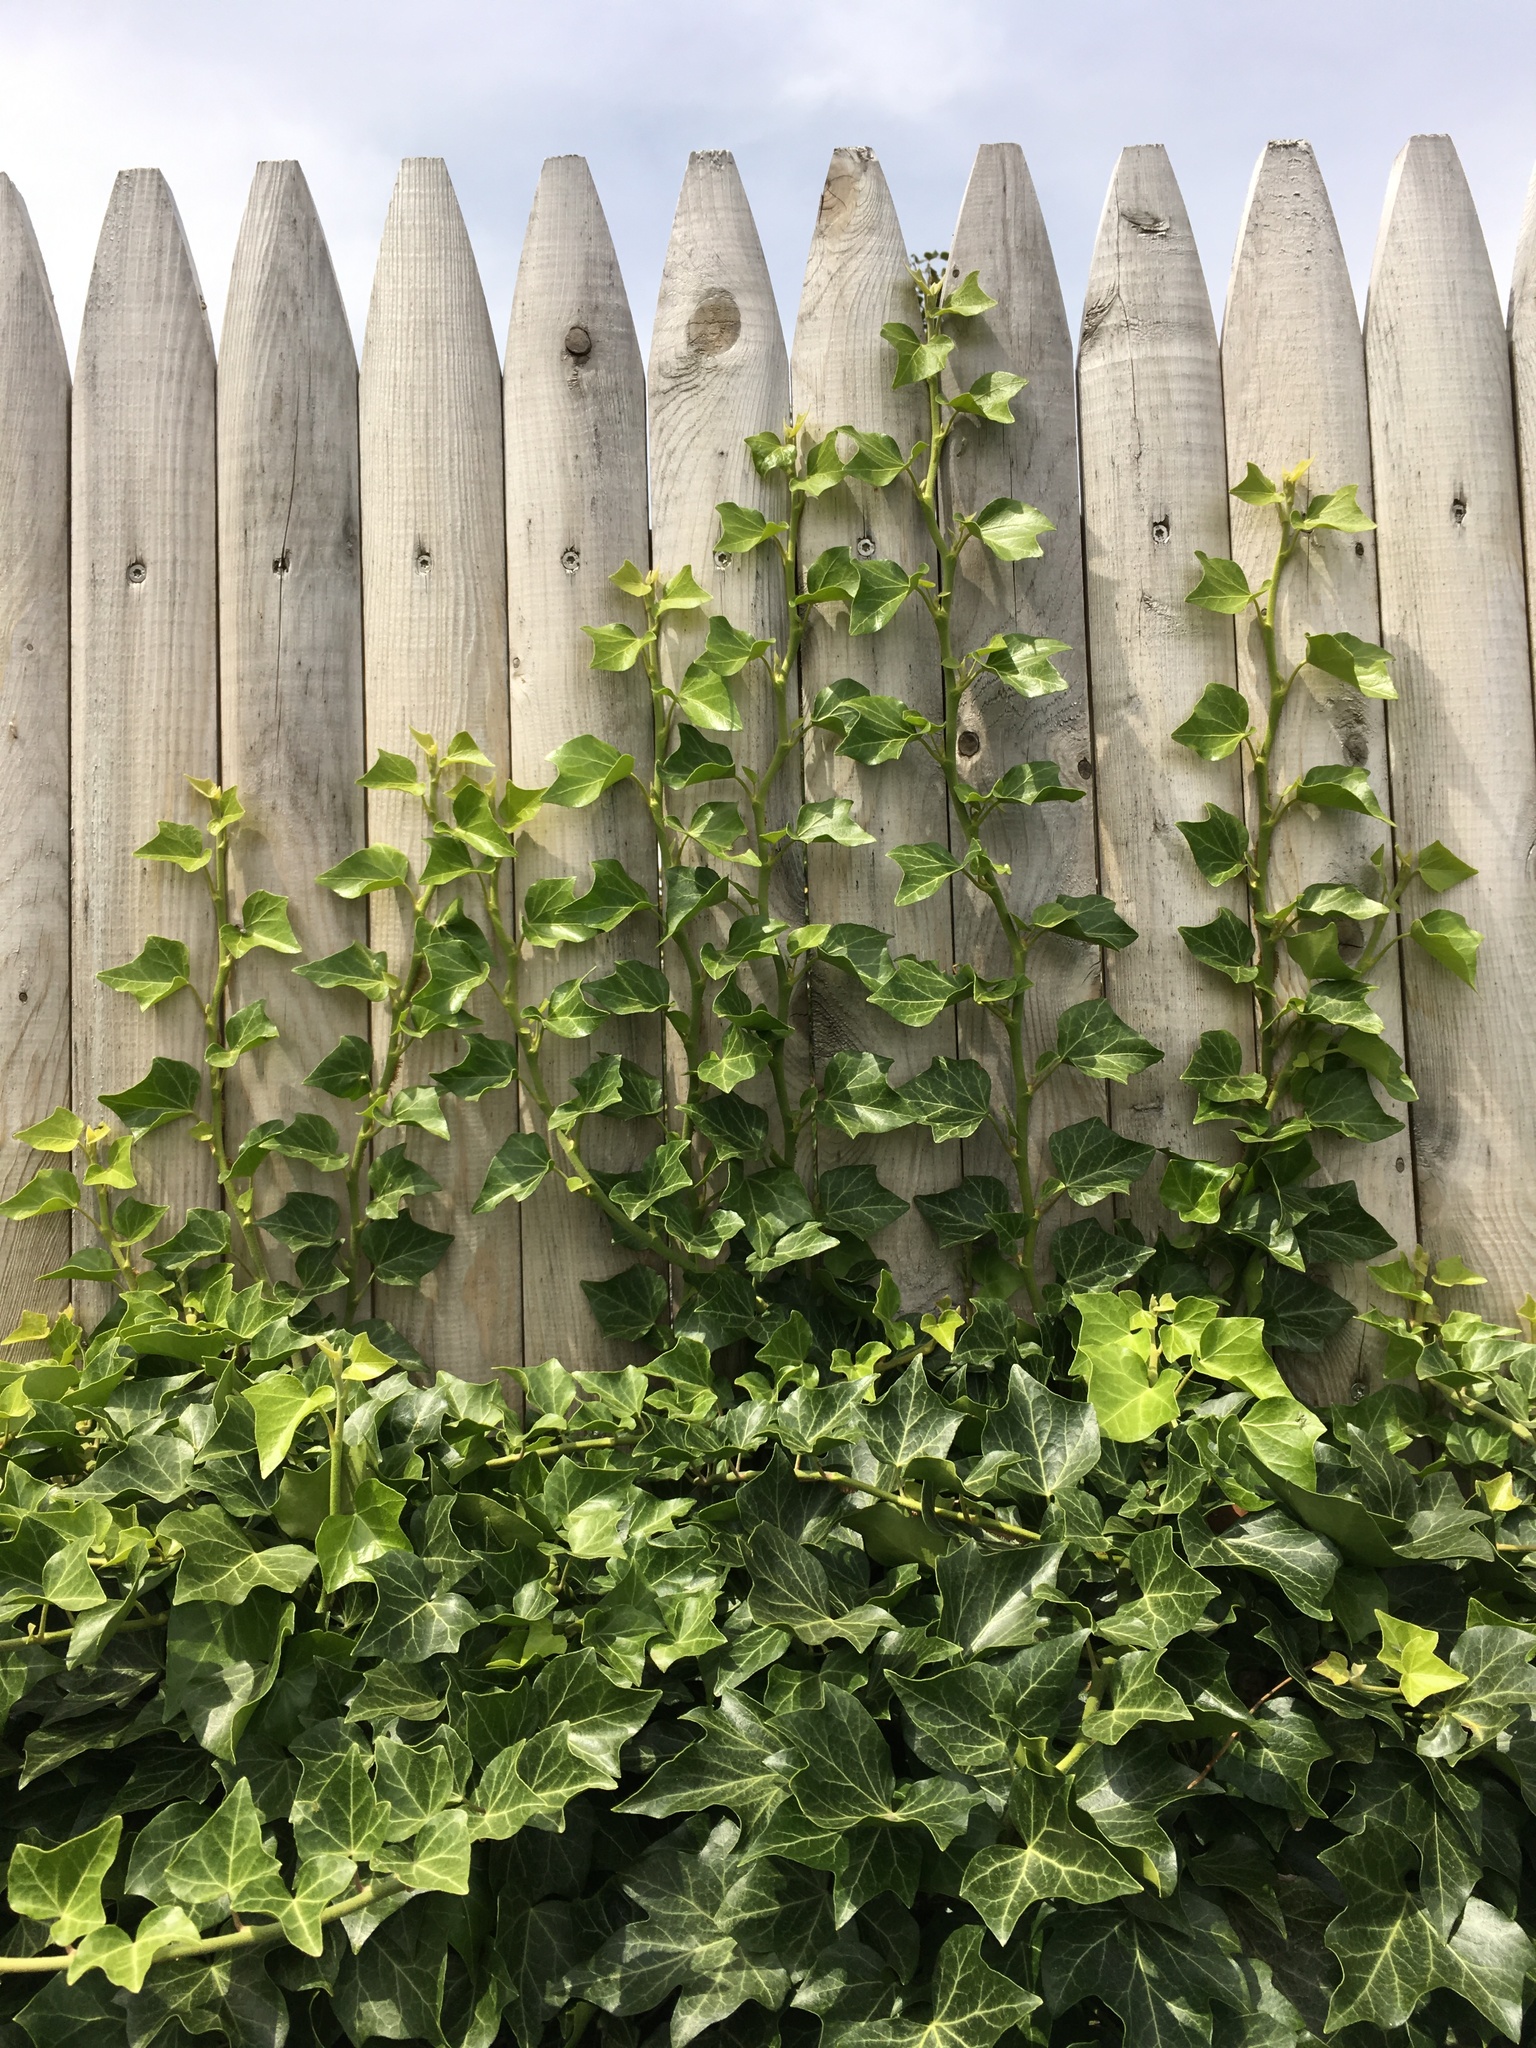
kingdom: Plantae
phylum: Tracheophyta
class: Magnoliopsida
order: Apiales
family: Araliaceae
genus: Hedera
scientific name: Hedera helix
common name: Ivy
